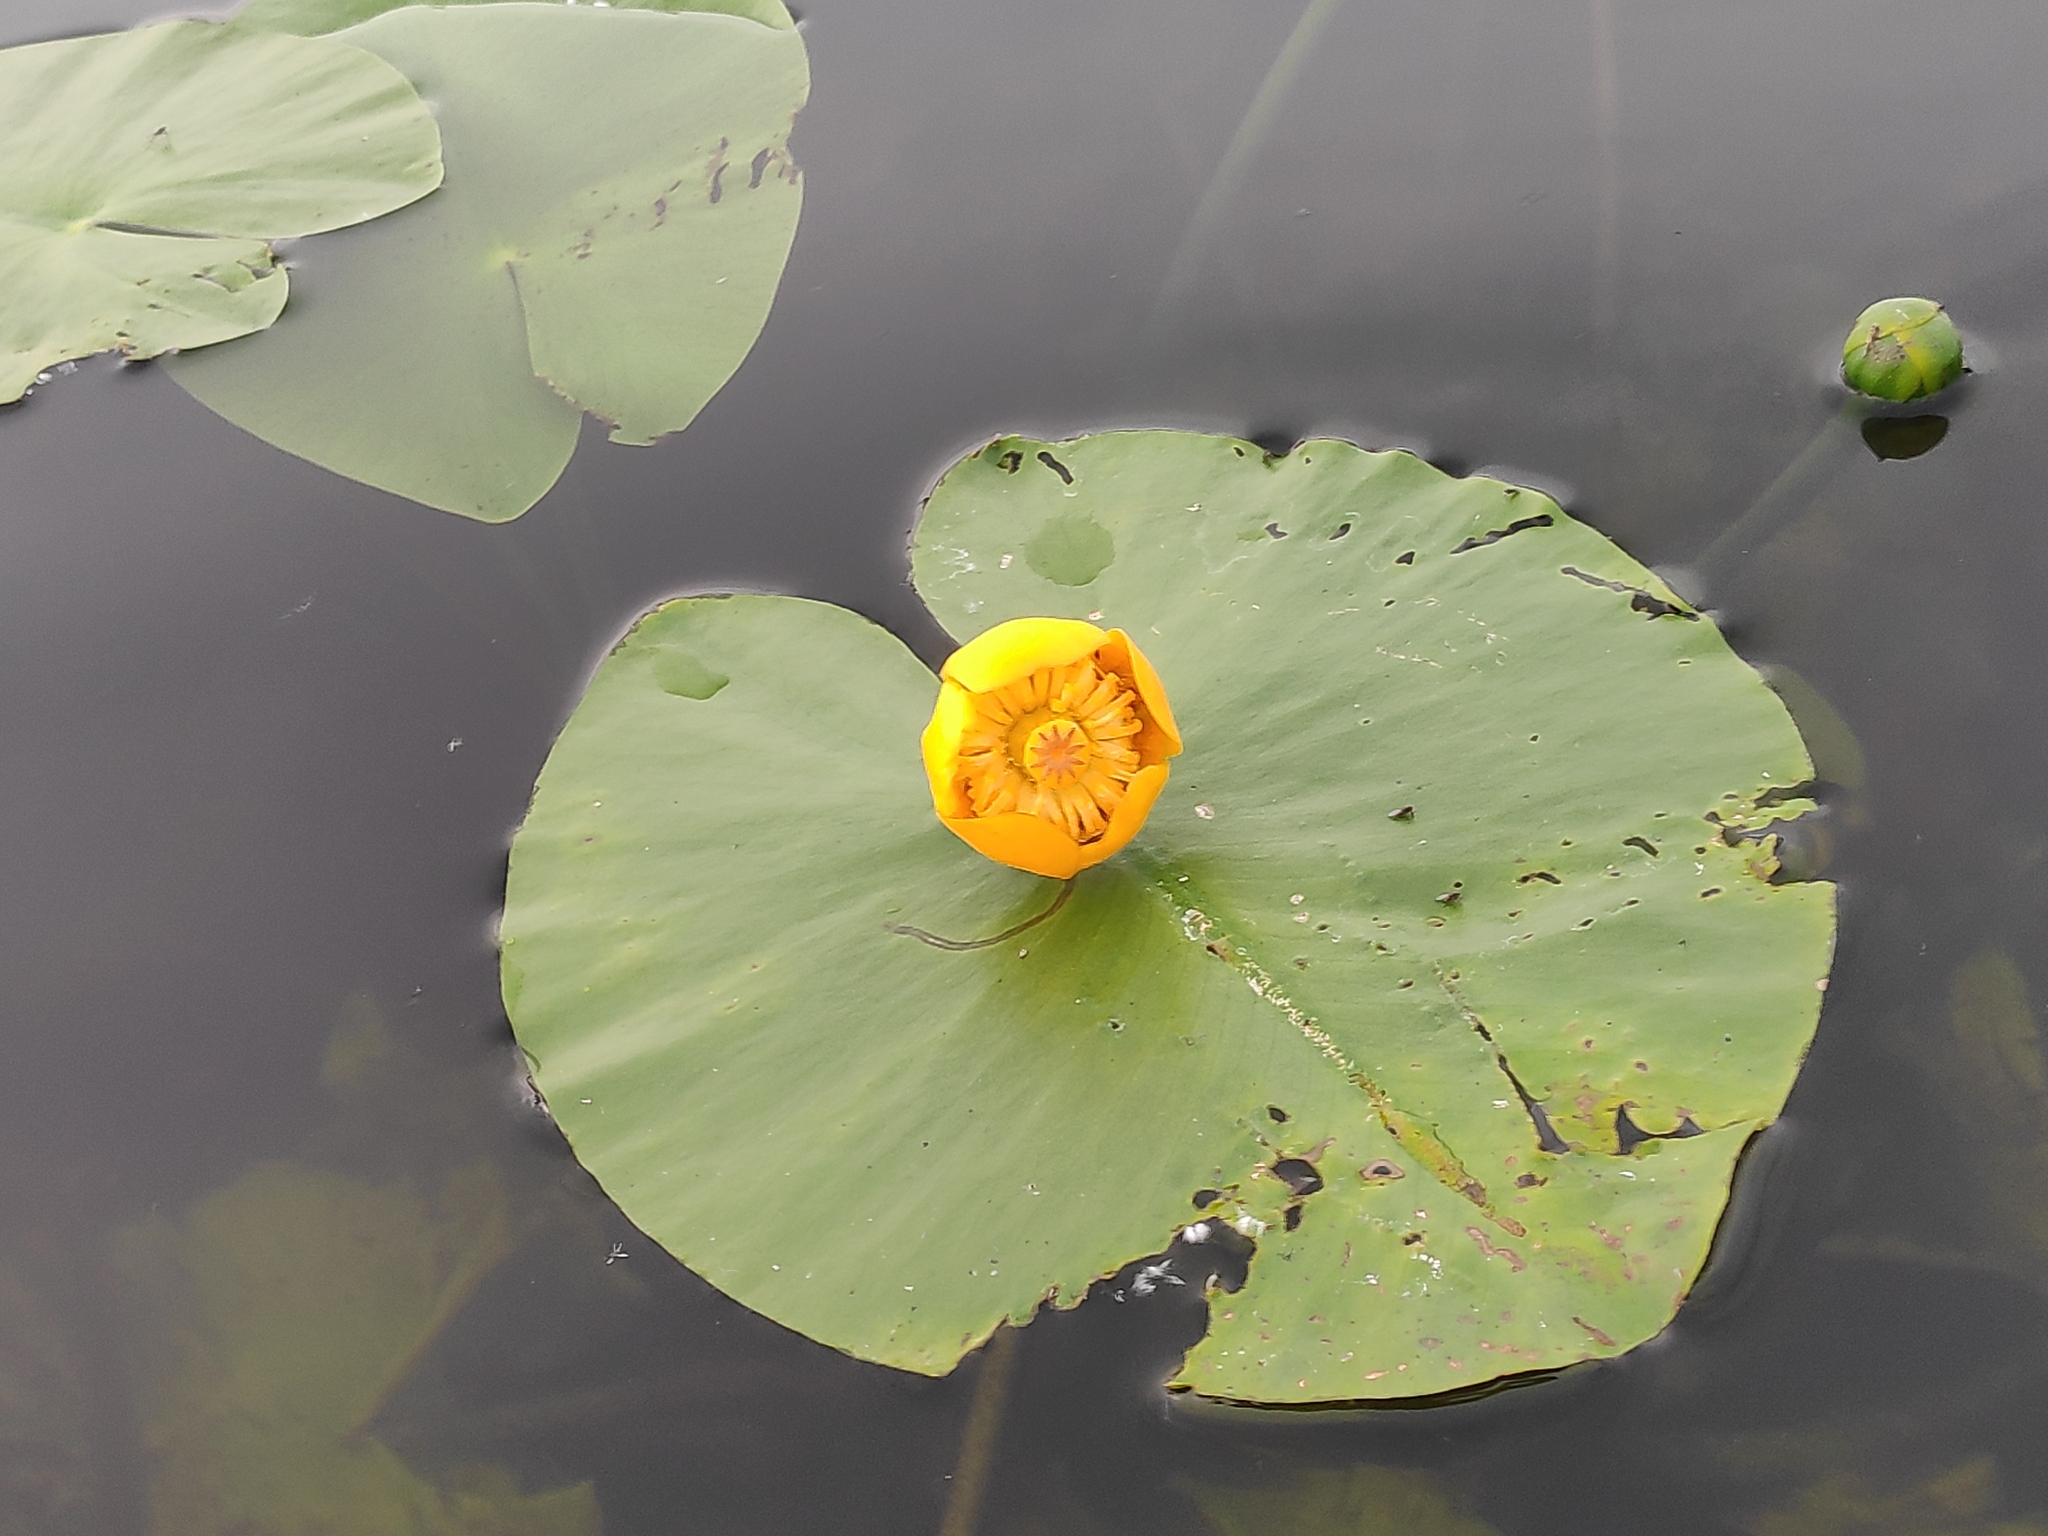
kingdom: Plantae
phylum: Tracheophyta
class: Magnoliopsida
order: Nymphaeales
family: Nymphaeaceae
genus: Nuphar
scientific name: Nuphar lutea
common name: Yellow water-lily
